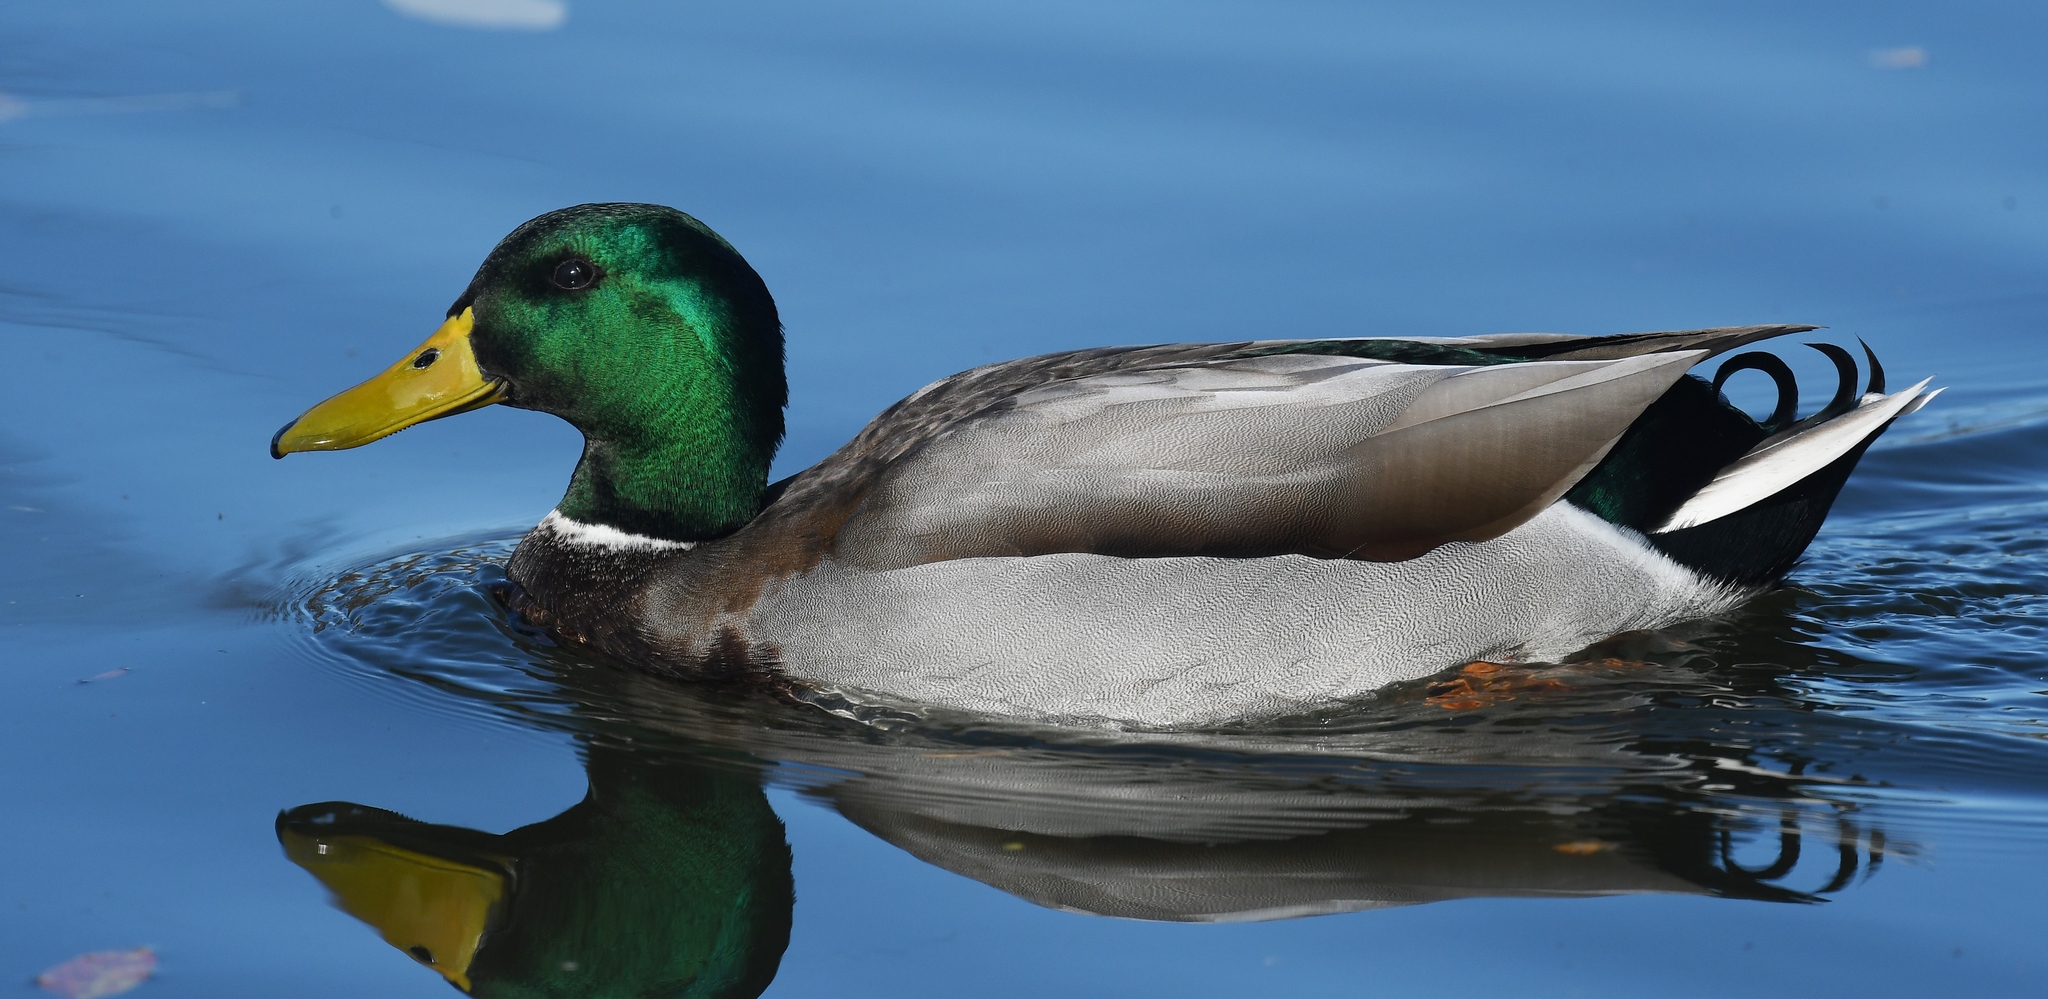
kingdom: Animalia
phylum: Chordata
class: Aves
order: Anseriformes
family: Anatidae
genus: Anas
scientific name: Anas platyrhynchos
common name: Mallard
